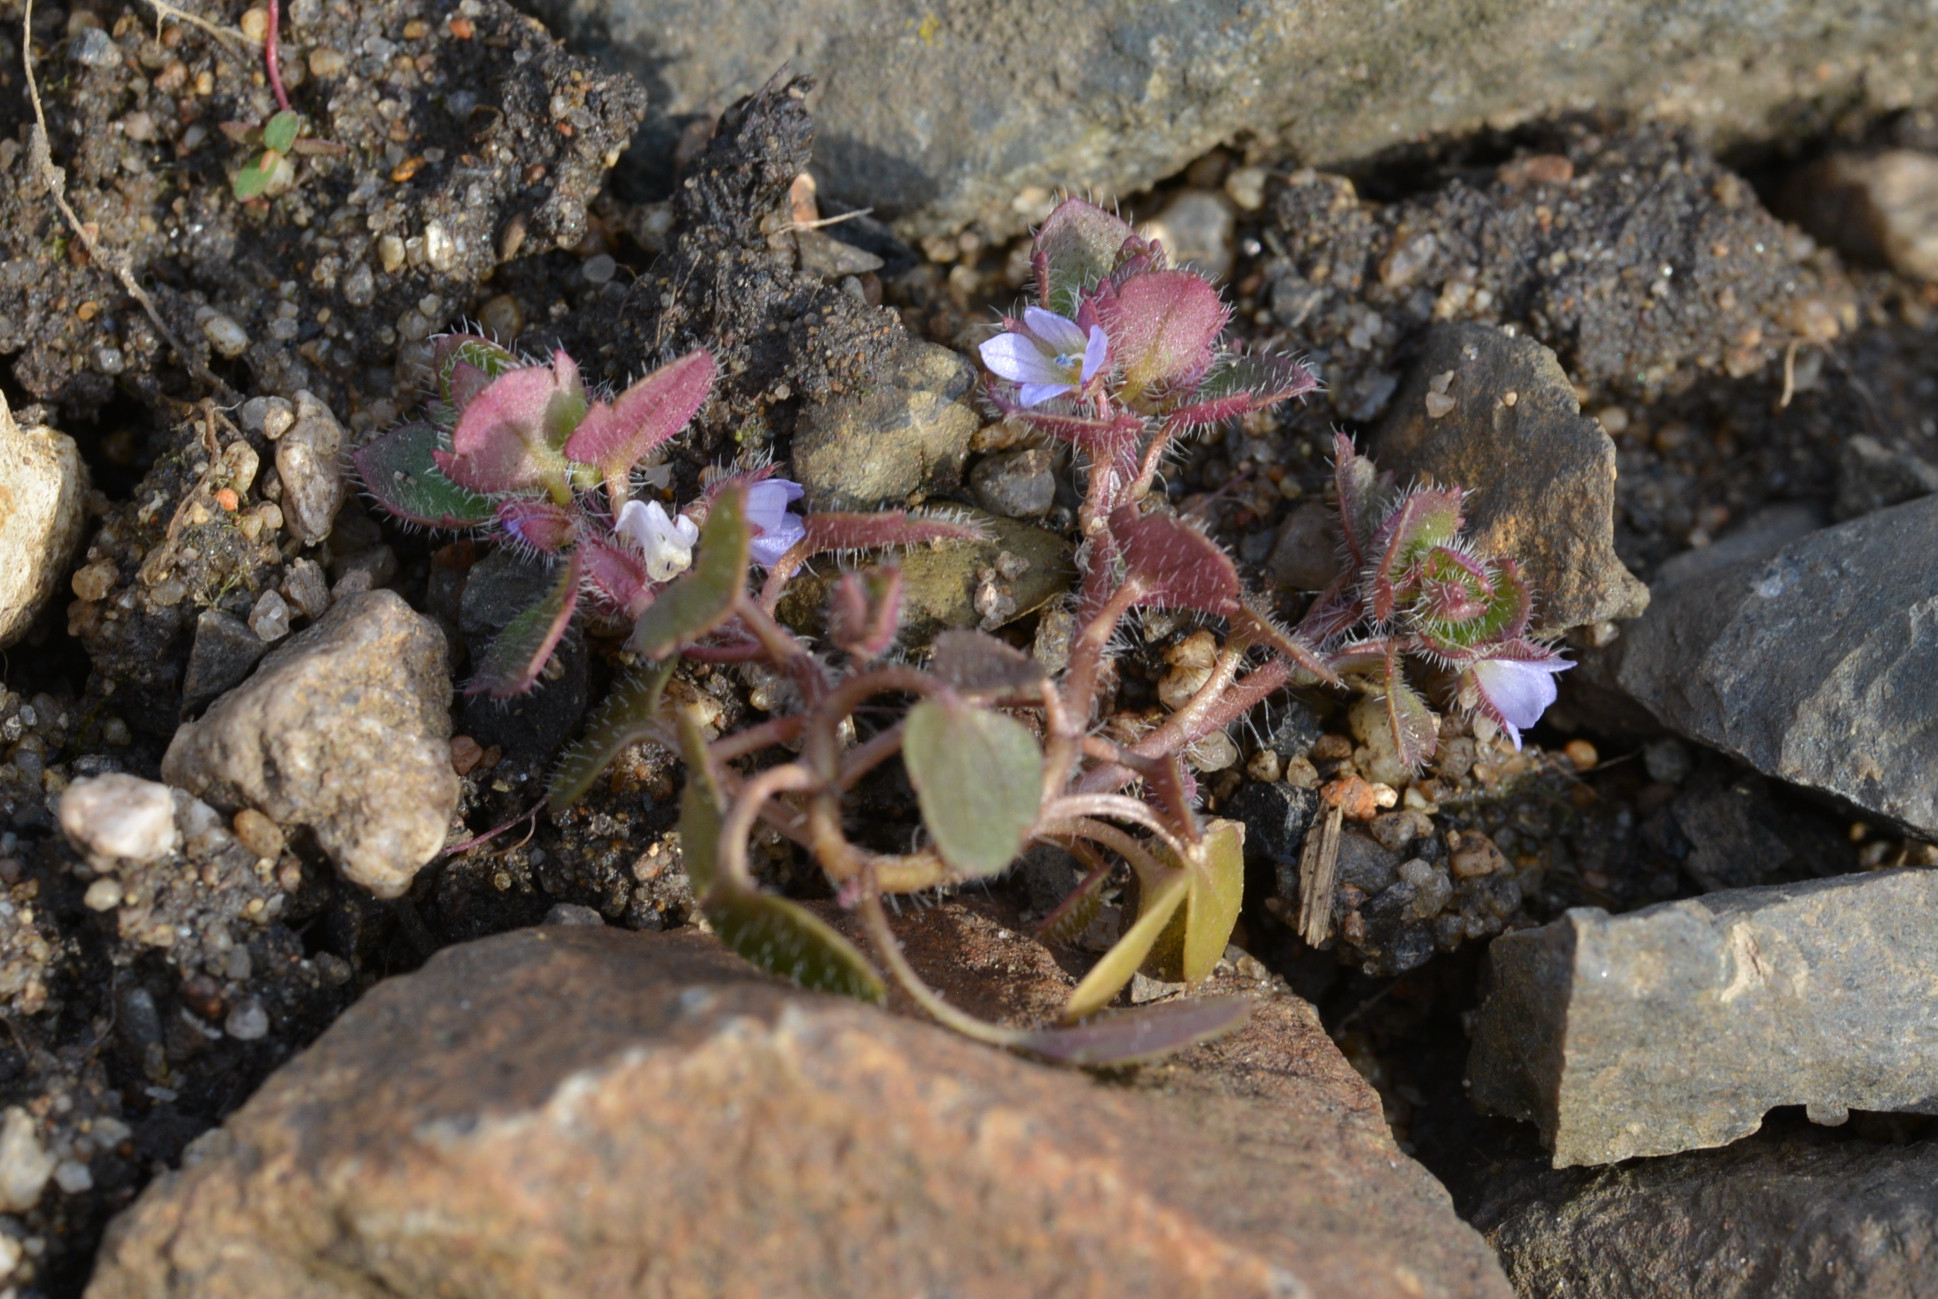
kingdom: Plantae
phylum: Tracheophyta
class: Magnoliopsida
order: Lamiales
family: Plantaginaceae
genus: Veronica
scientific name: Veronica sublobata
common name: False ivy-leaved speedwell
